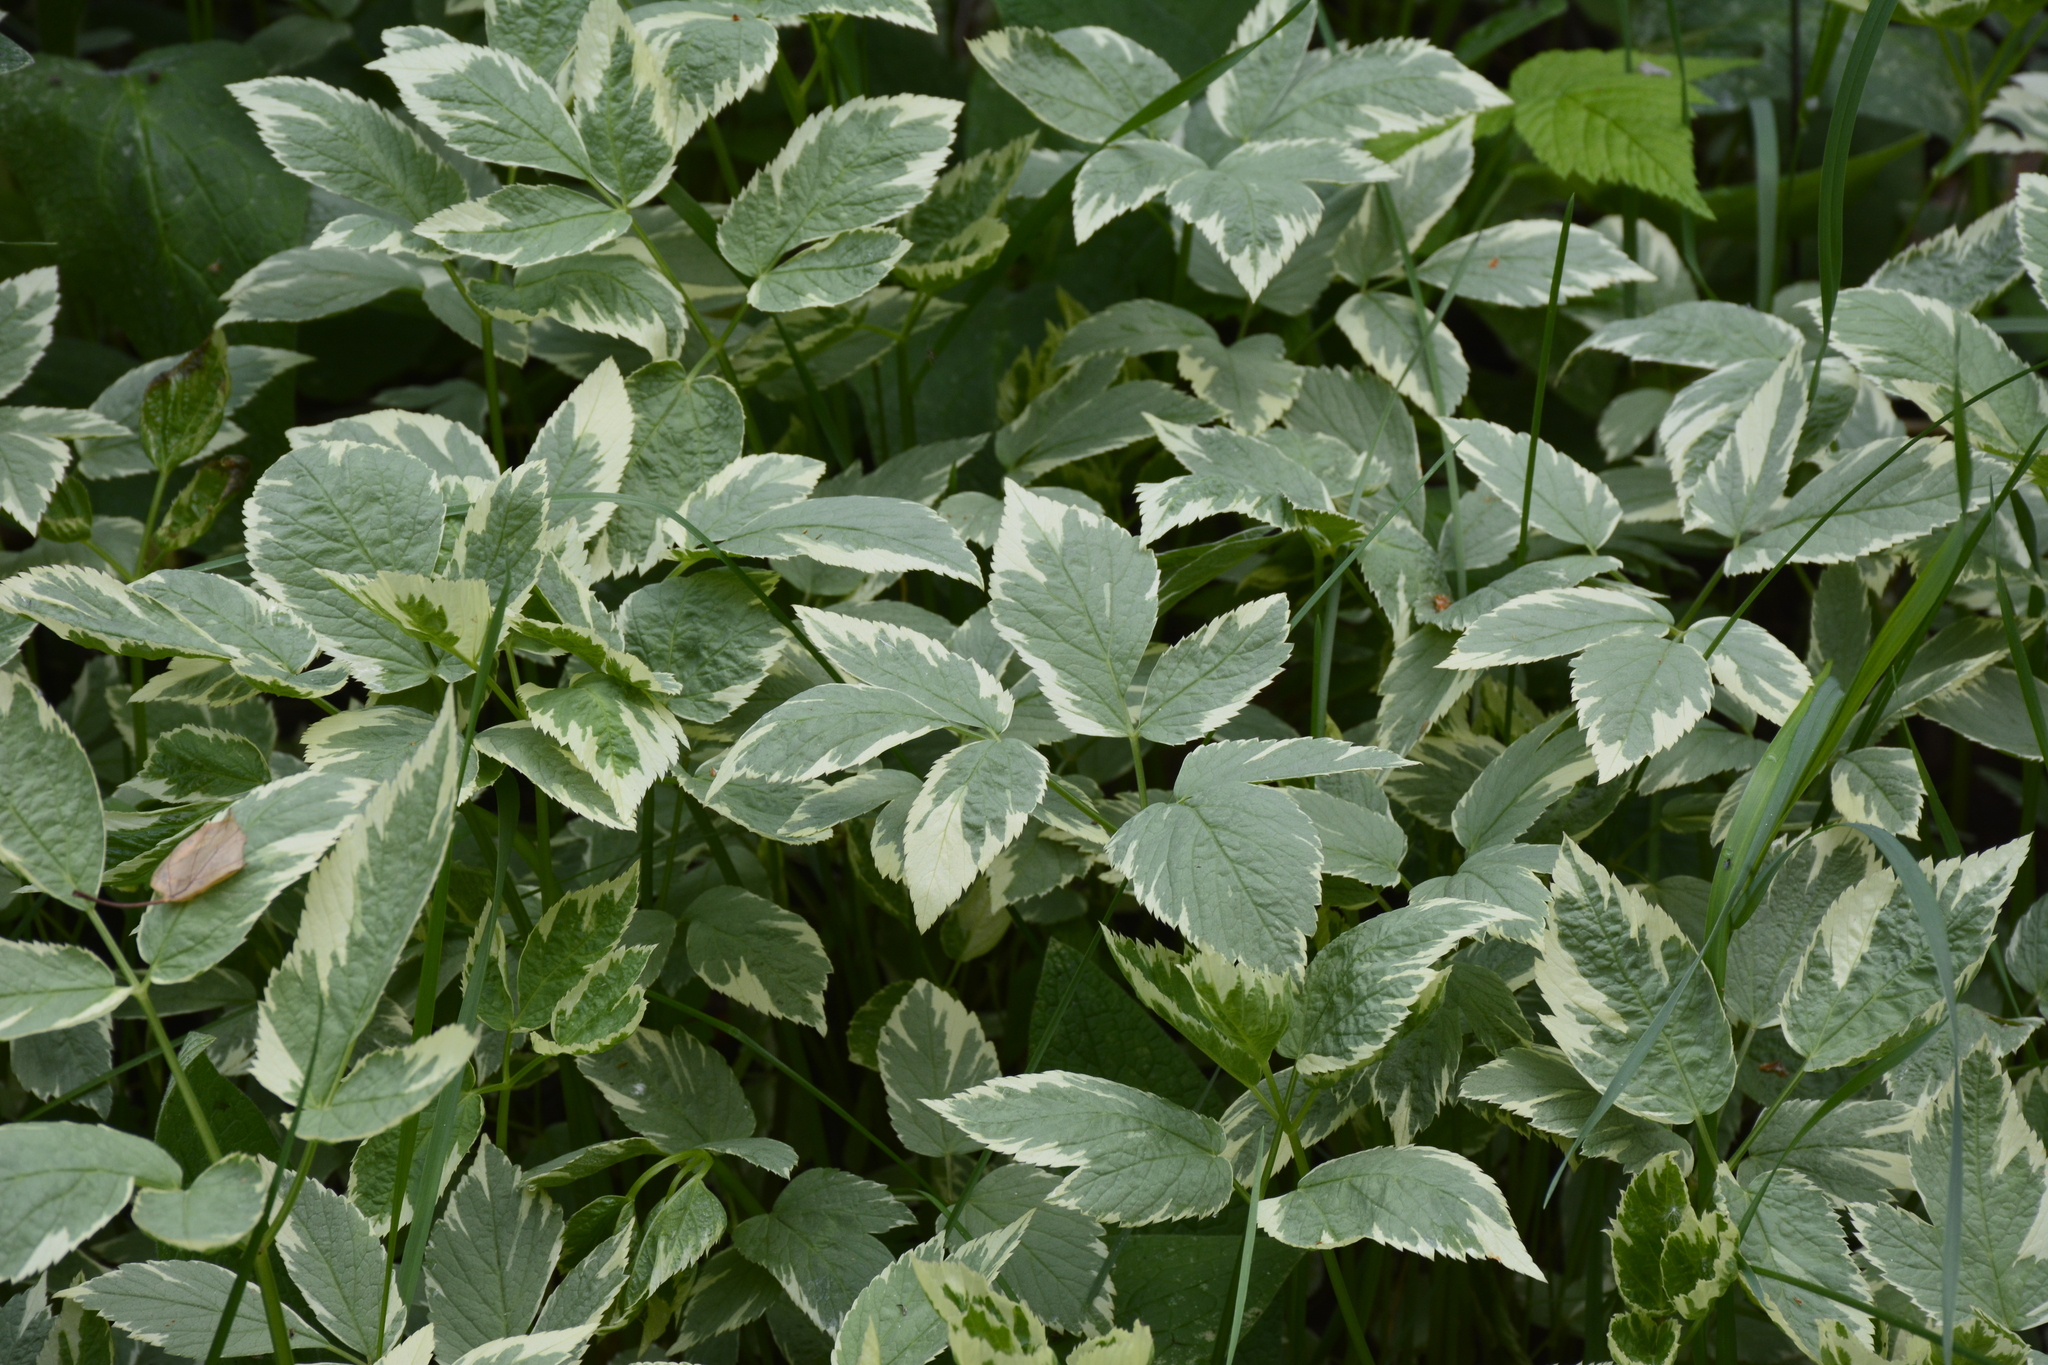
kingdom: Plantae
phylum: Tracheophyta
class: Magnoliopsida
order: Apiales
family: Apiaceae
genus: Aegopodium
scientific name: Aegopodium podagraria
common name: Ground-elder
